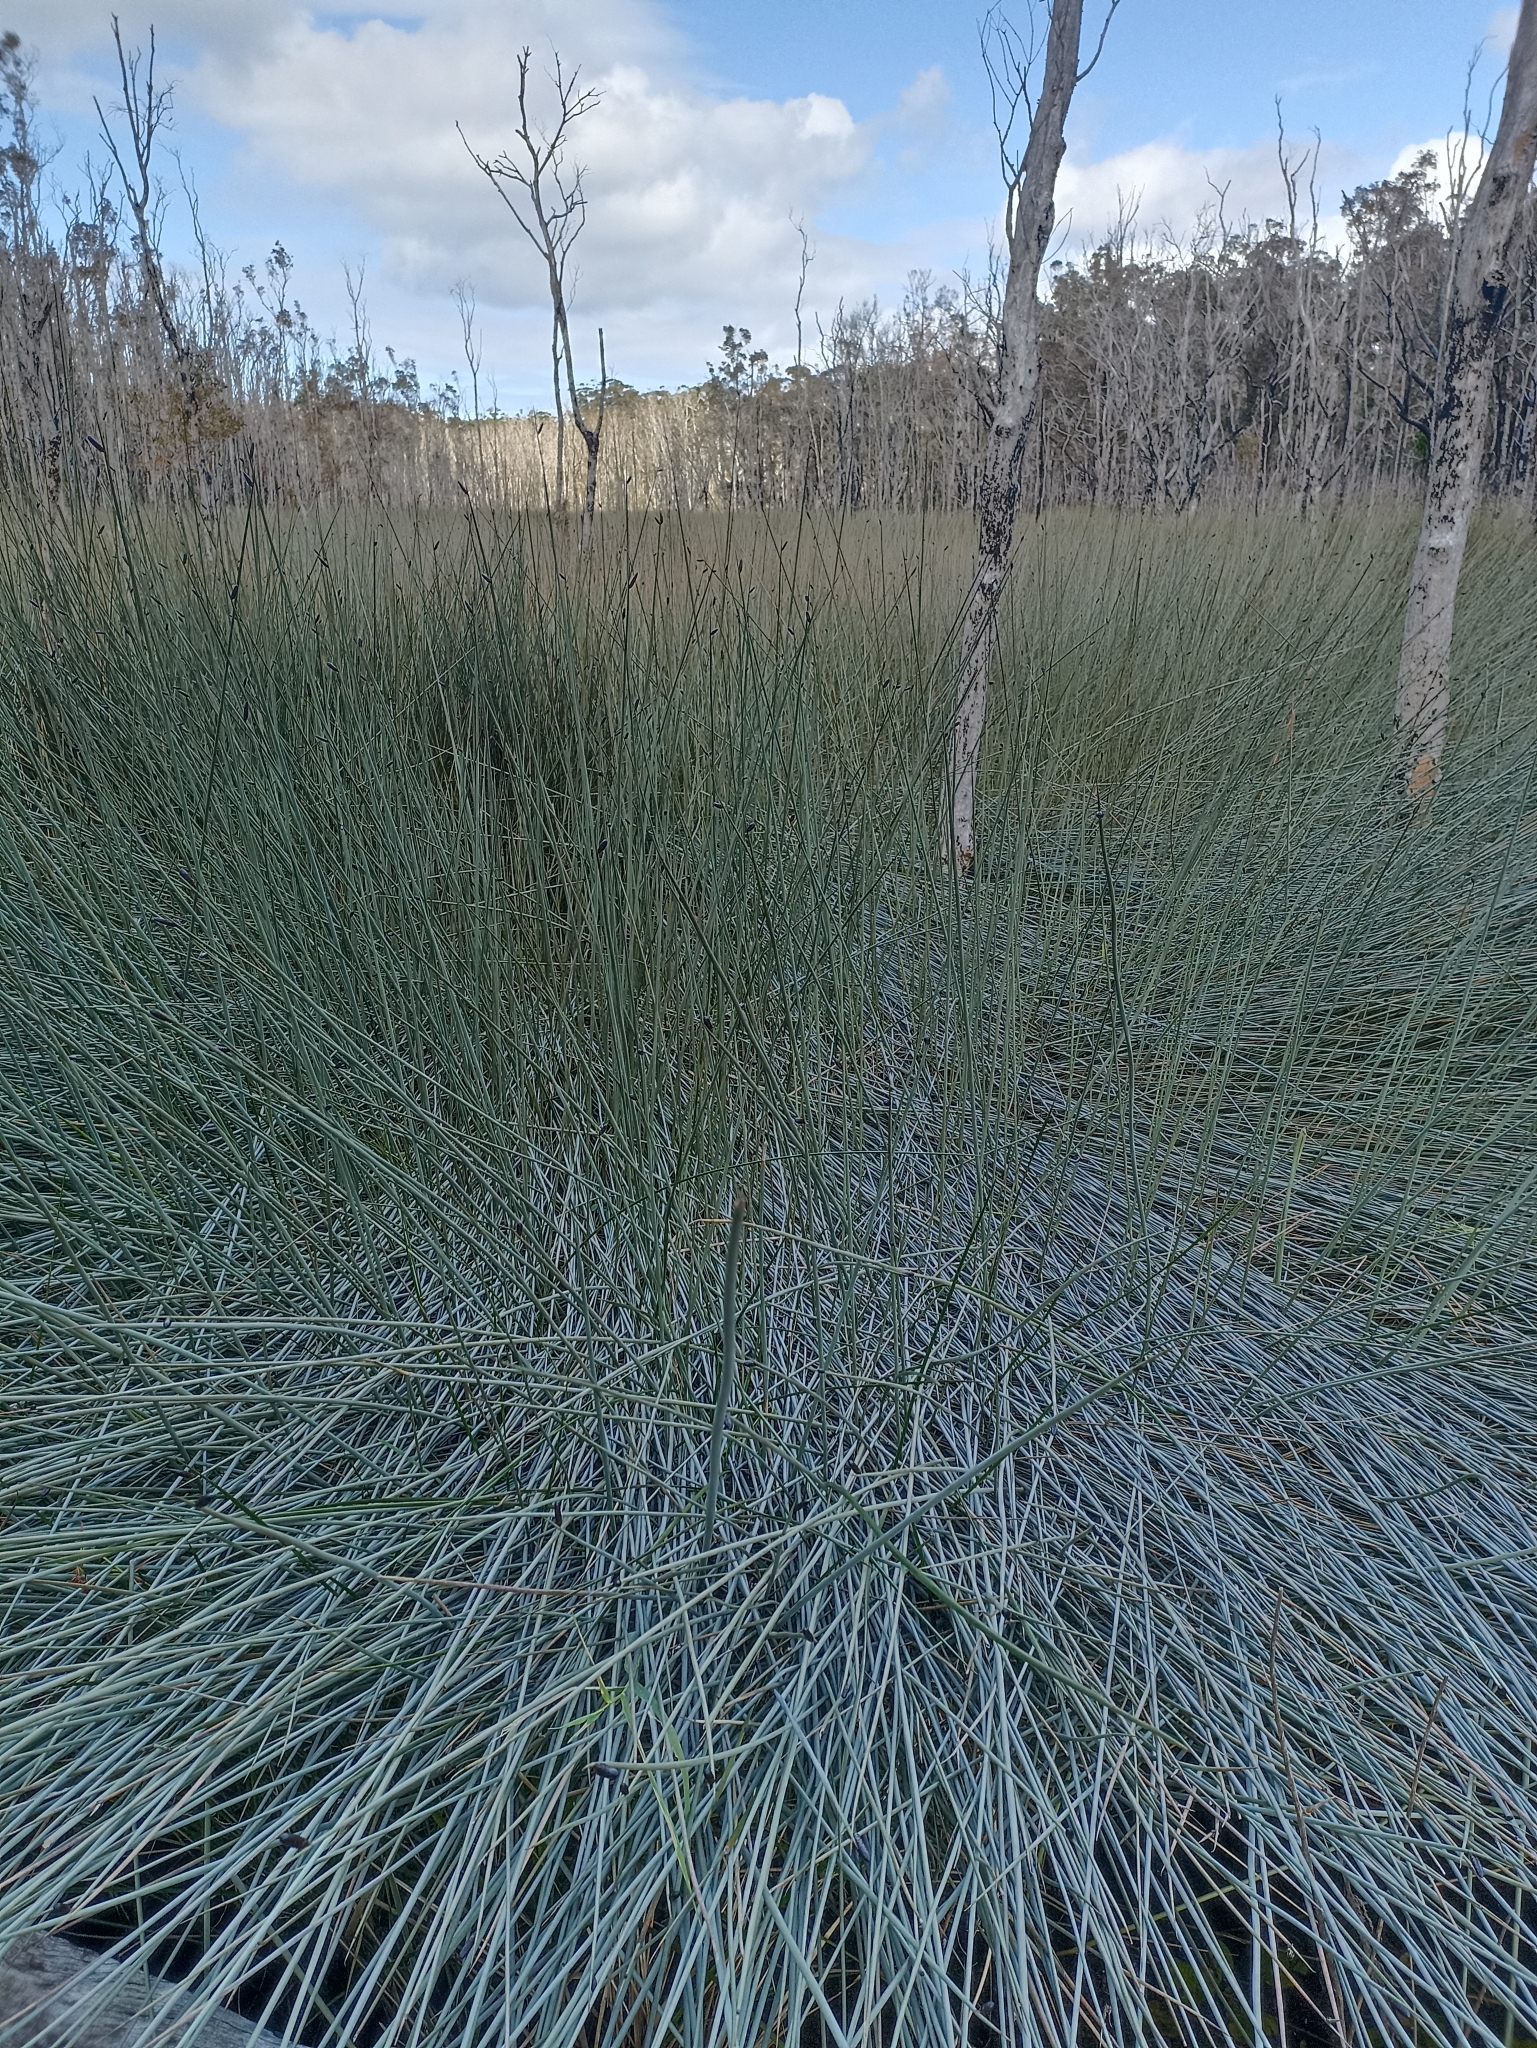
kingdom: Plantae
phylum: Tracheophyta
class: Liliopsida
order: Poales
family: Cyperaceae
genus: Lepironia
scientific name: Lepironia articulata
